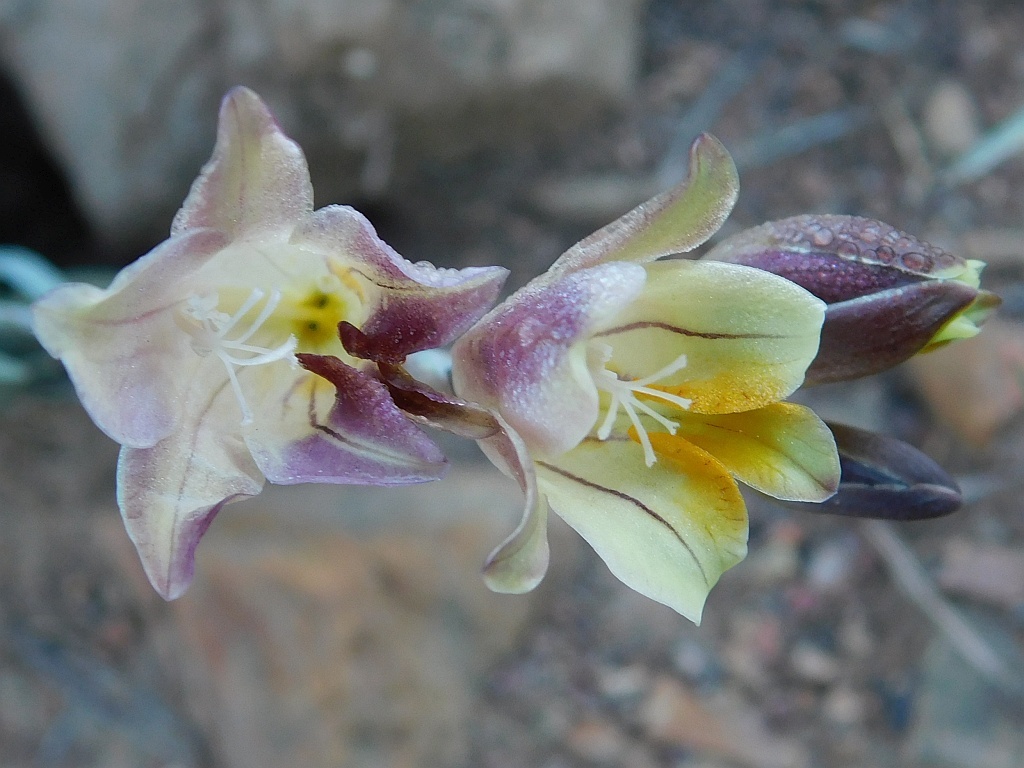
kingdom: Plantae
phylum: Tracheophyta
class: Liliopsida
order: Asparagales
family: Iridaceae
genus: Freesia
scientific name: Freesia refracta
